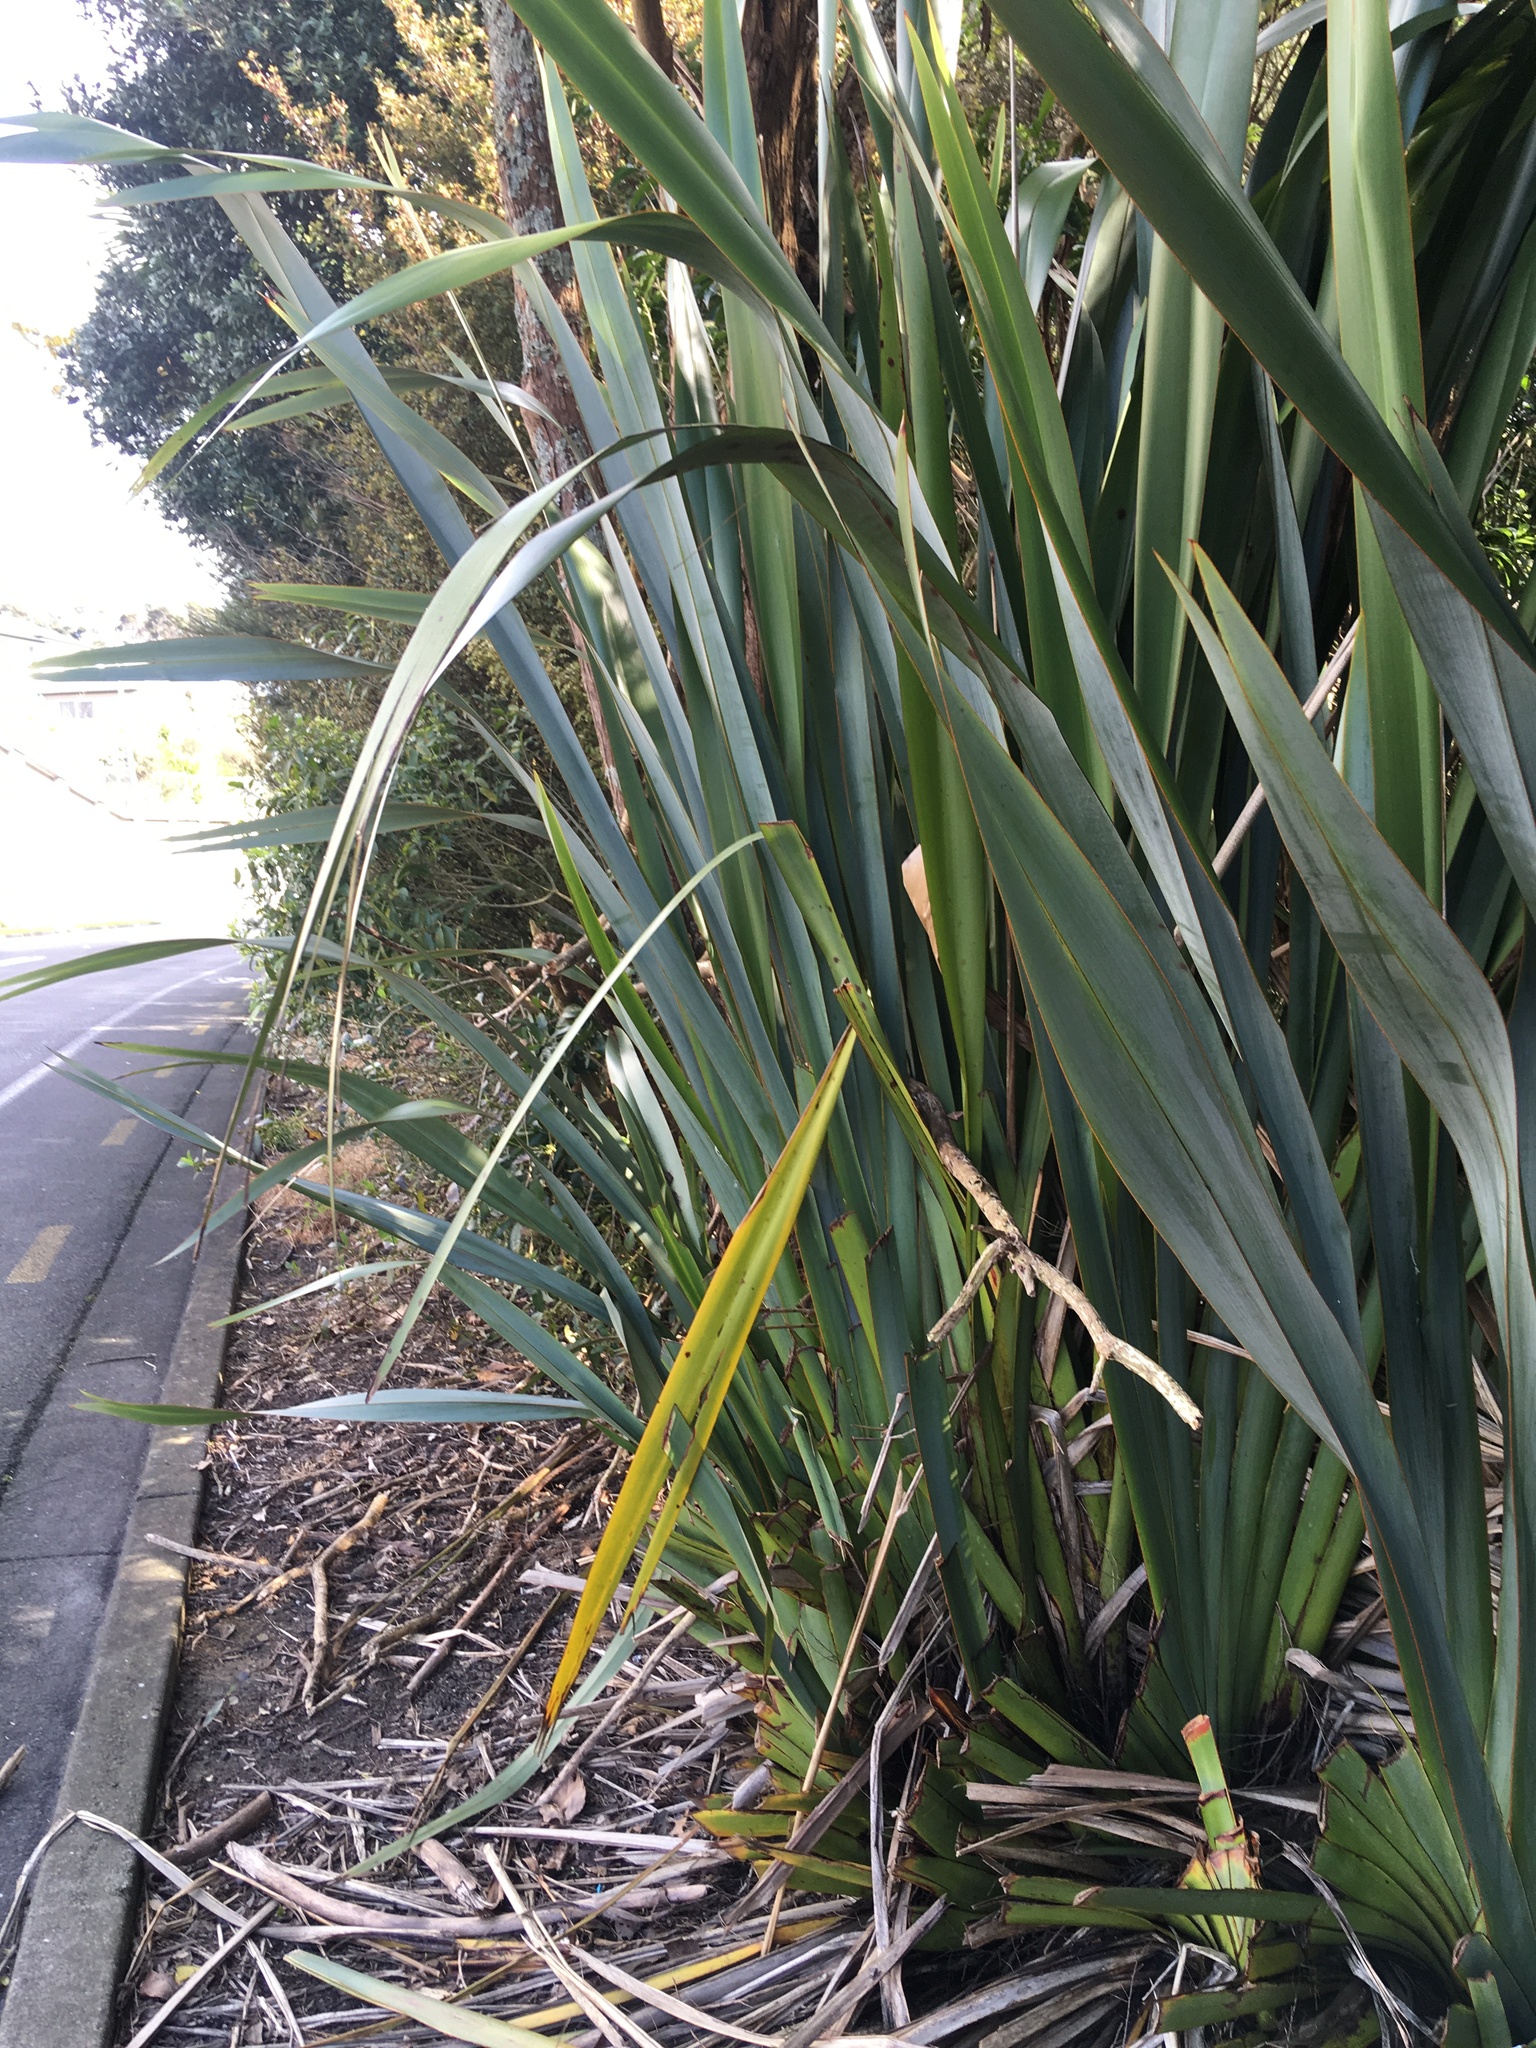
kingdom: Plantae
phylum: Tracheophyta
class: Liliopsida
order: Asparagales
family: Asphodelaceae
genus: Phormium
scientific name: Phormium tenax
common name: New zealand flax
